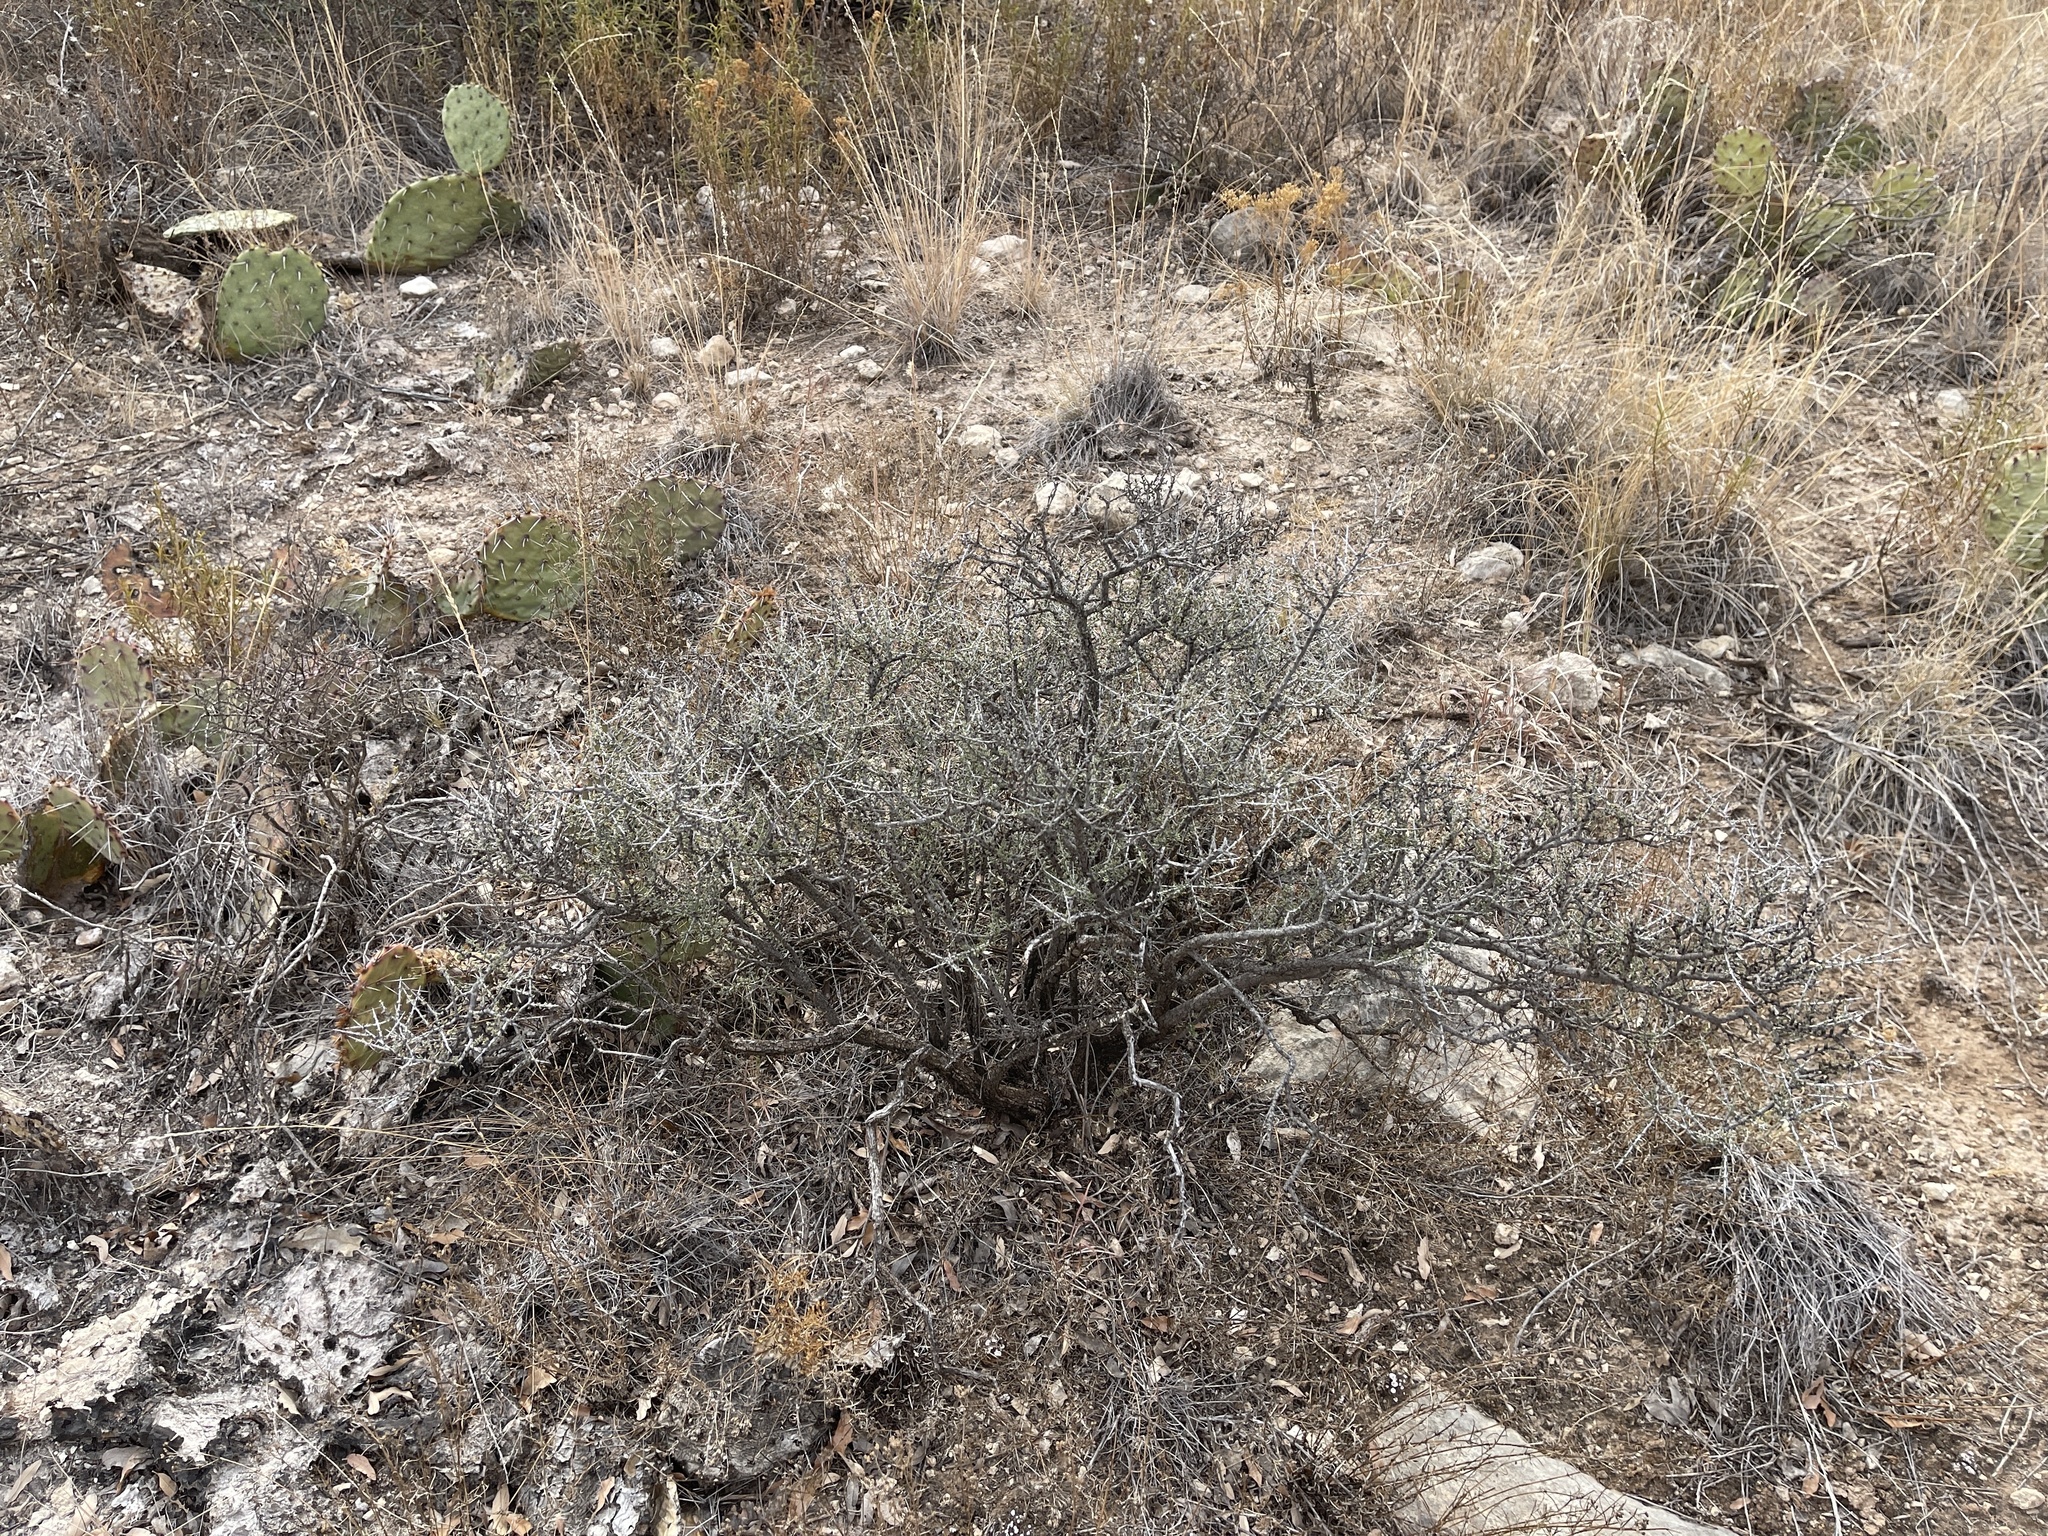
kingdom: Plantae
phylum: Tracheophyta
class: Magnoliopsida
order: Rosales
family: Rhamnaceae
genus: Condalia
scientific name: Condalia ericoides
